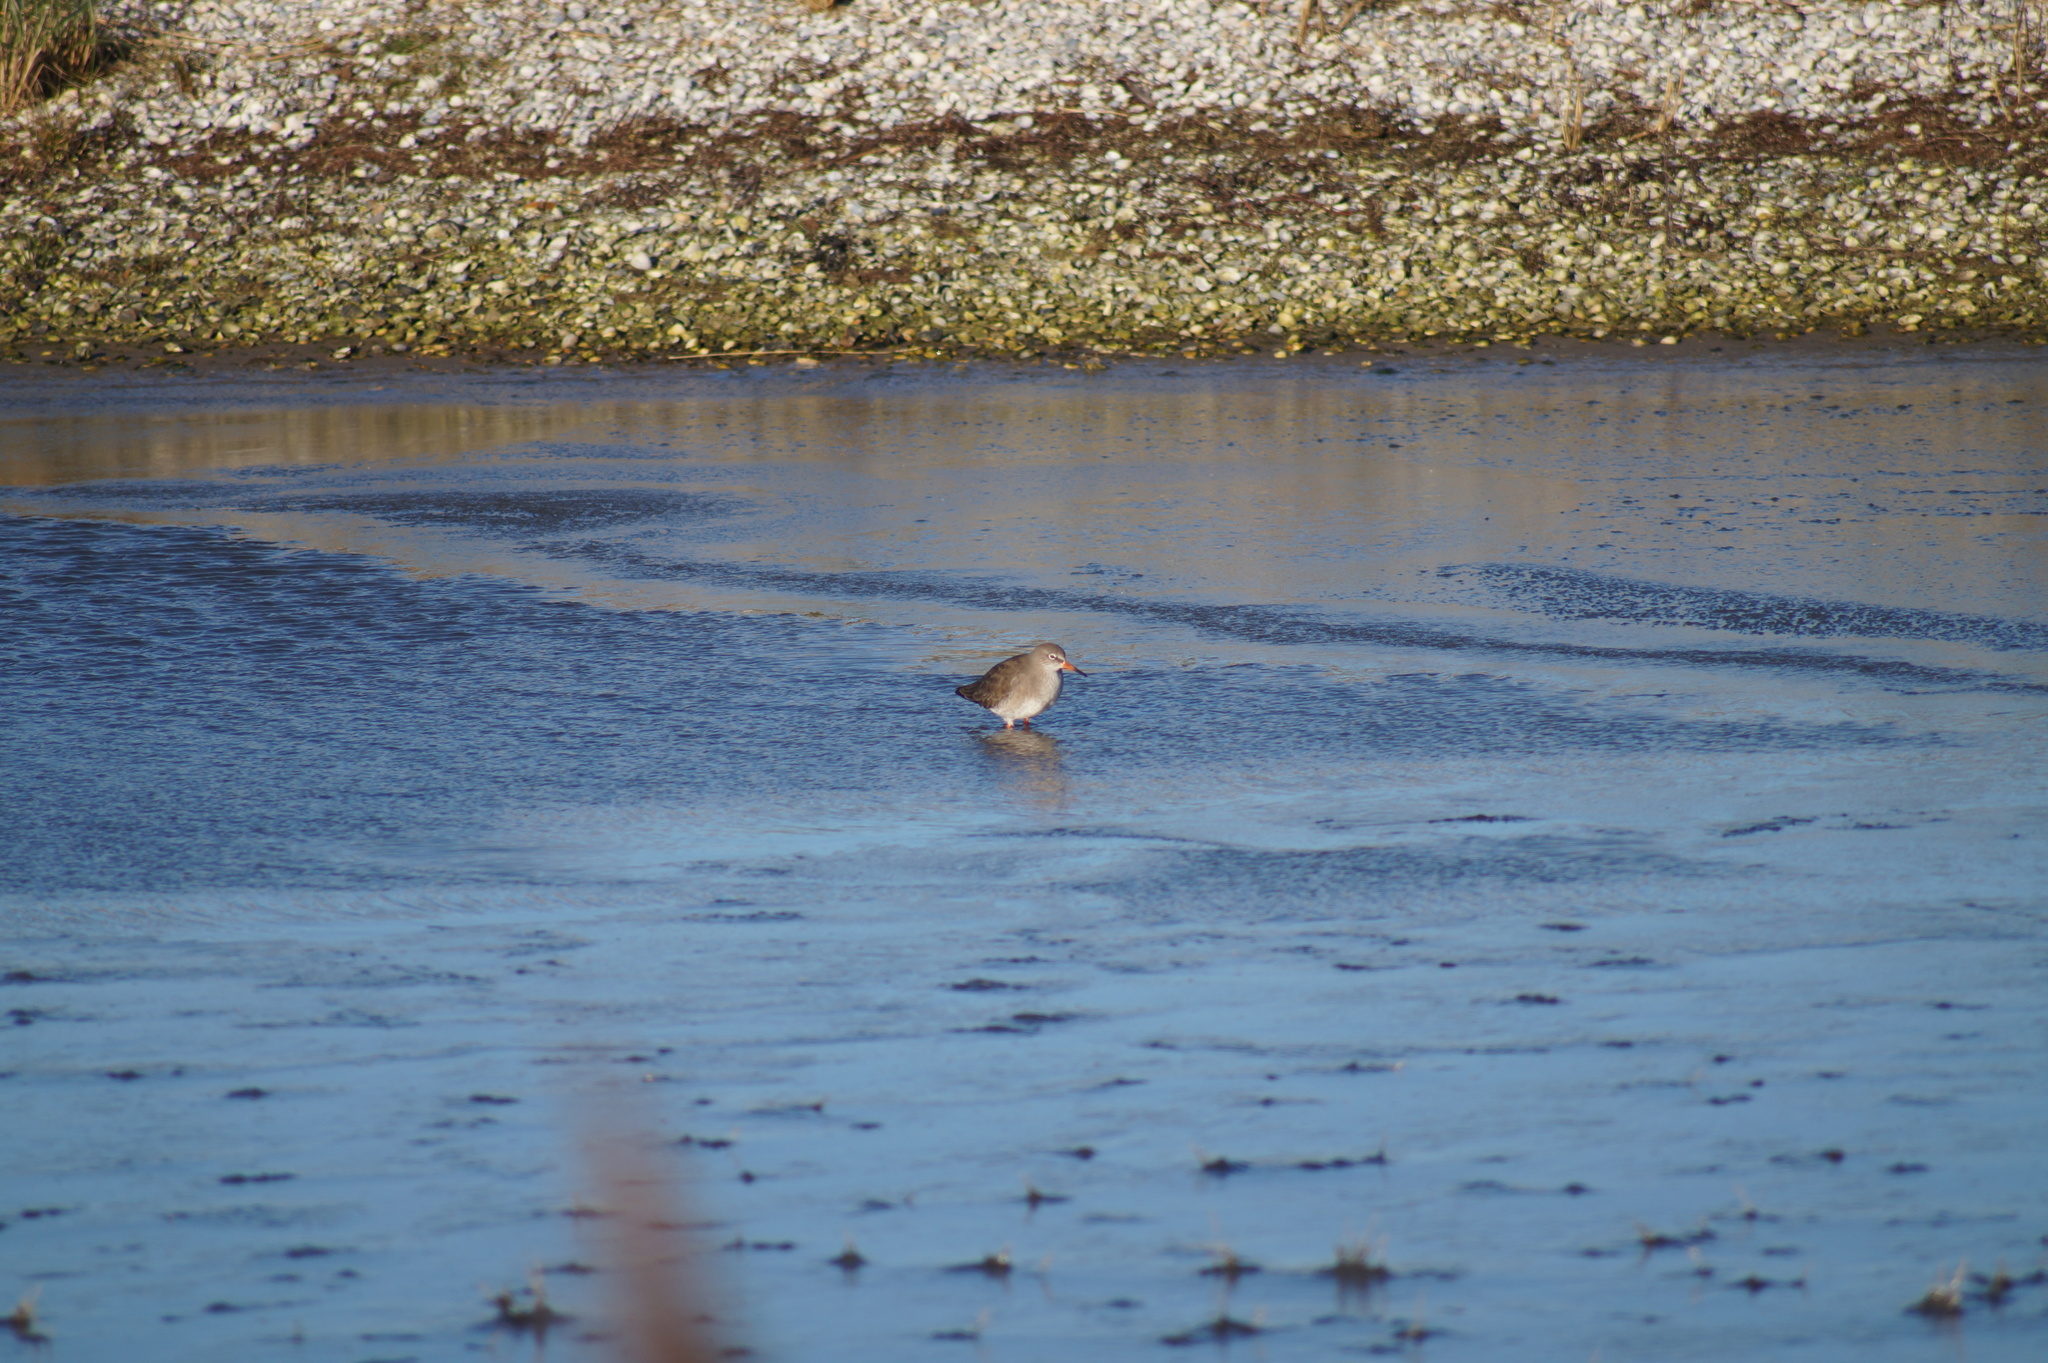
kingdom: Animalia
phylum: Chordata
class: Aves
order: Charadriiformes
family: Scolopacidae
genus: Tringa
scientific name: Tringa totanus
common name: Common redshank
